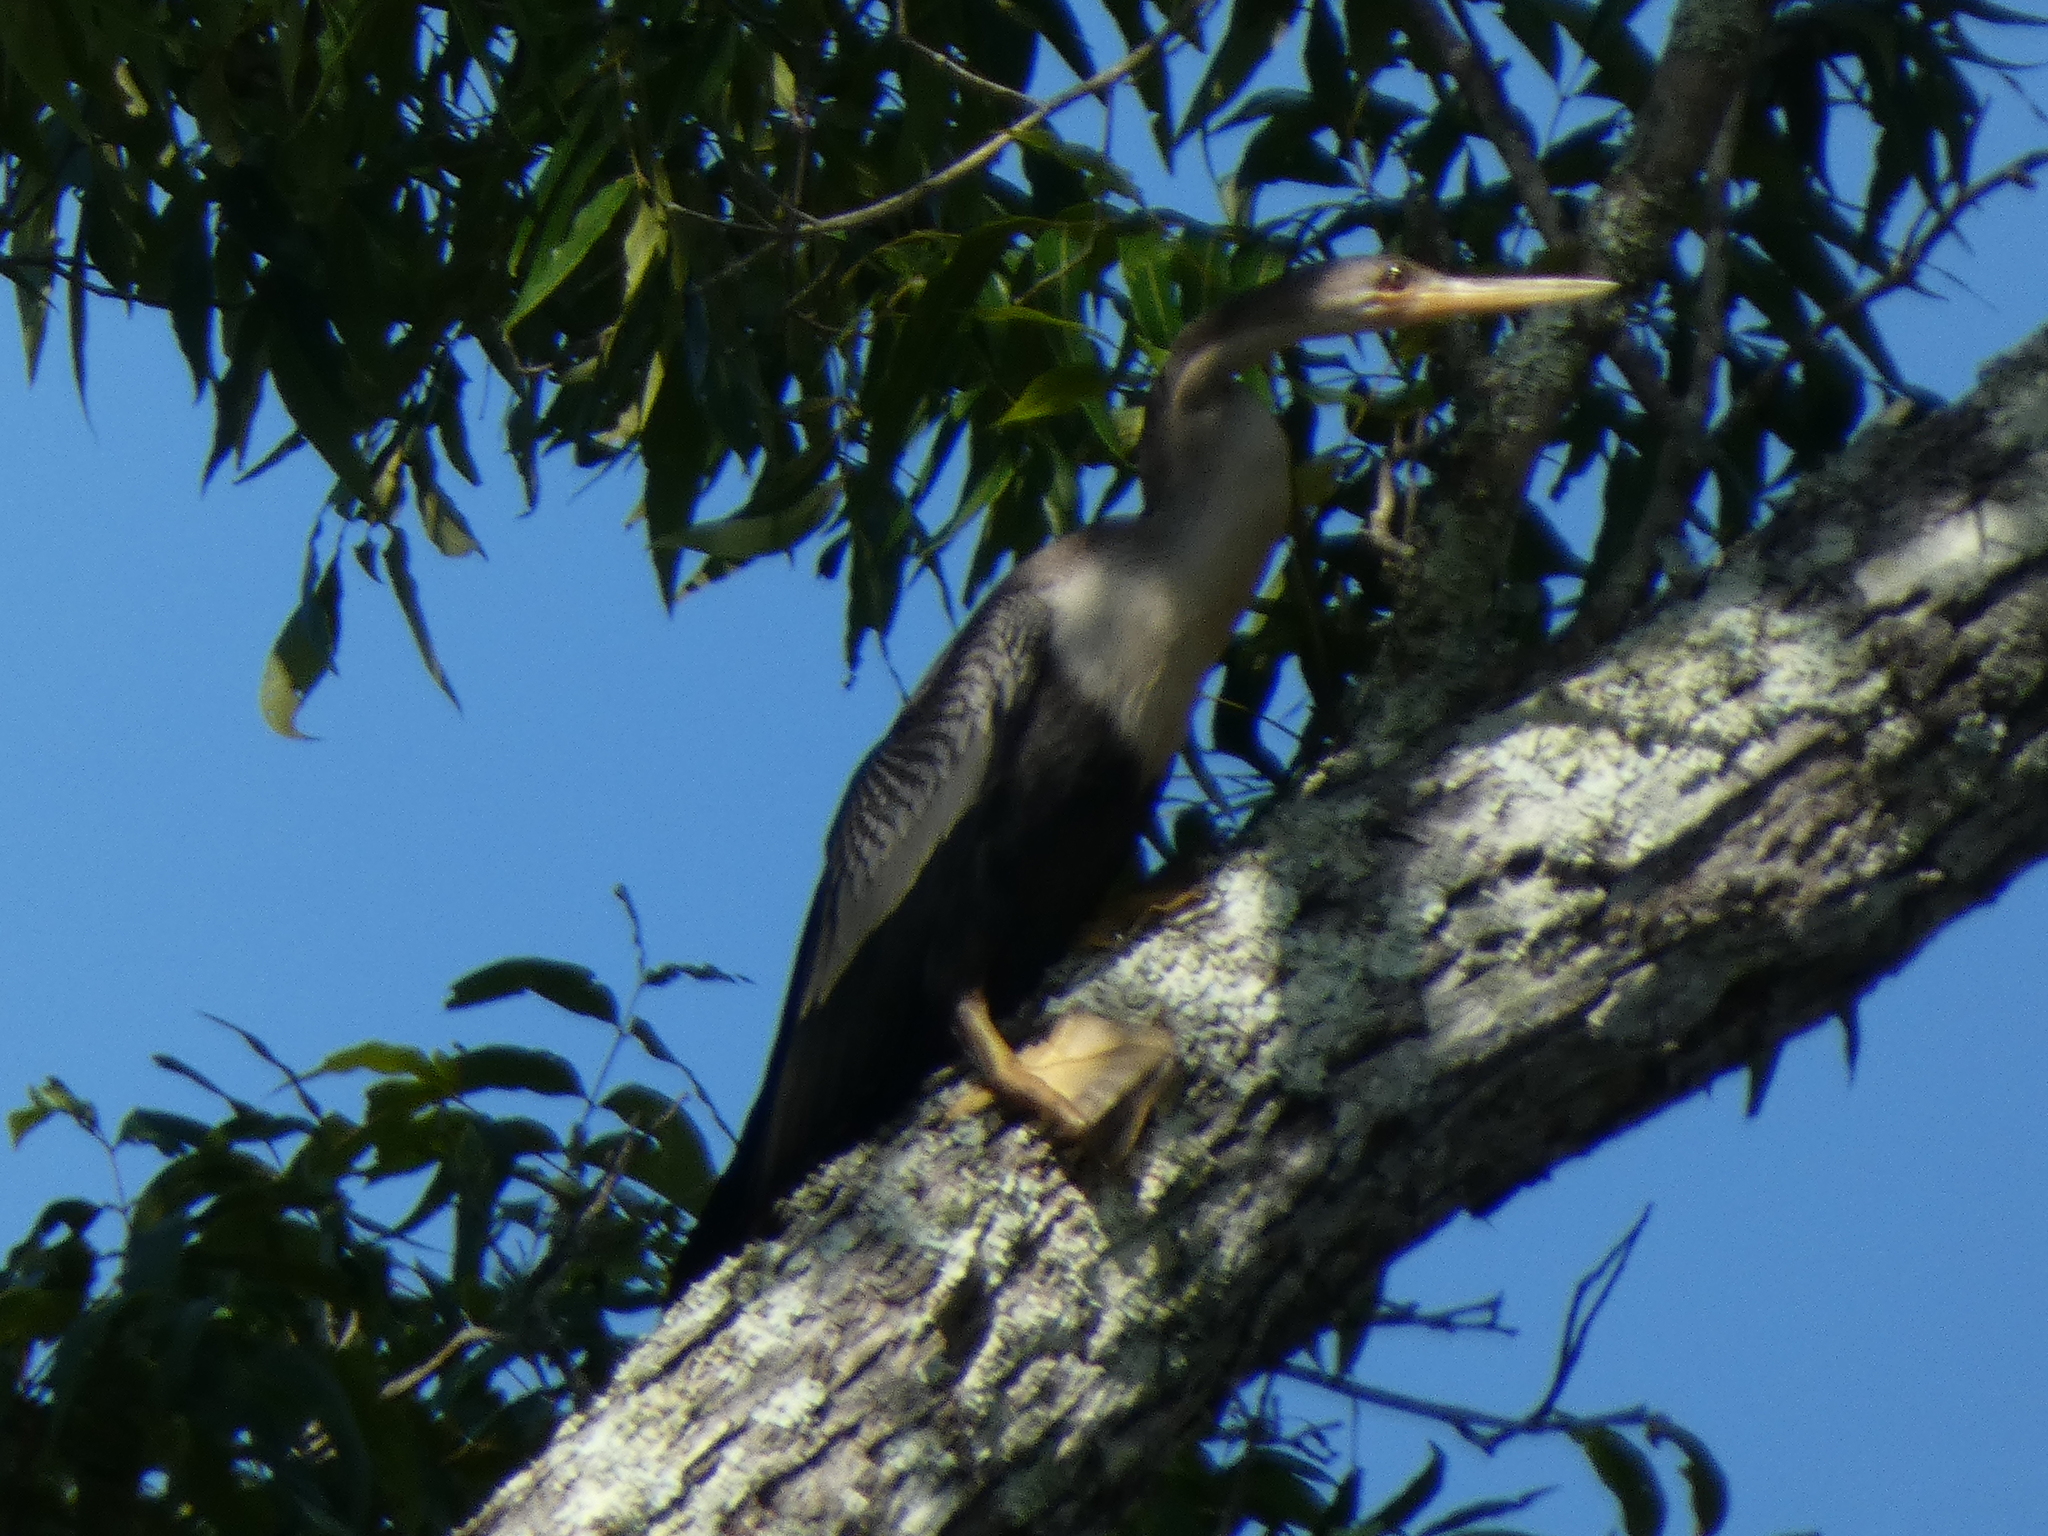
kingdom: Animalia
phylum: Chordata
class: Aves
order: Suliformes
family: Anhingidae
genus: Anhinga
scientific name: Anhinga anhinga
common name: Anhinga
